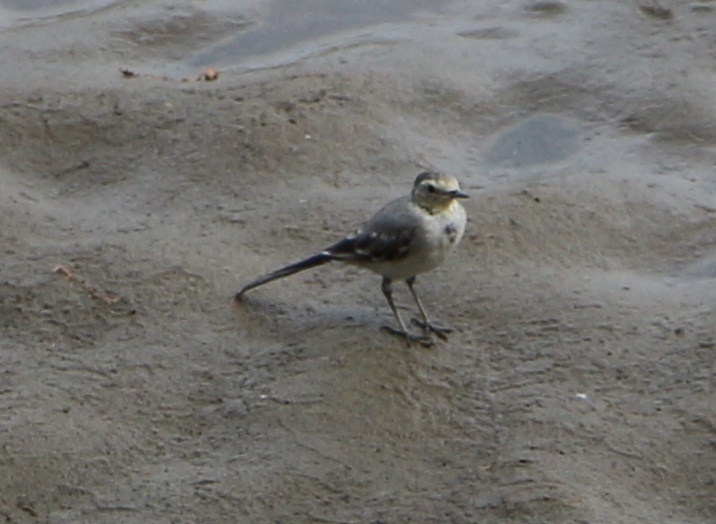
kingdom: Animalia
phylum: Chordata
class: Aves
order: Passeriformes
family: Motacillidae
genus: Motacilla
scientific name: Motacilla alba
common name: White wagtail
